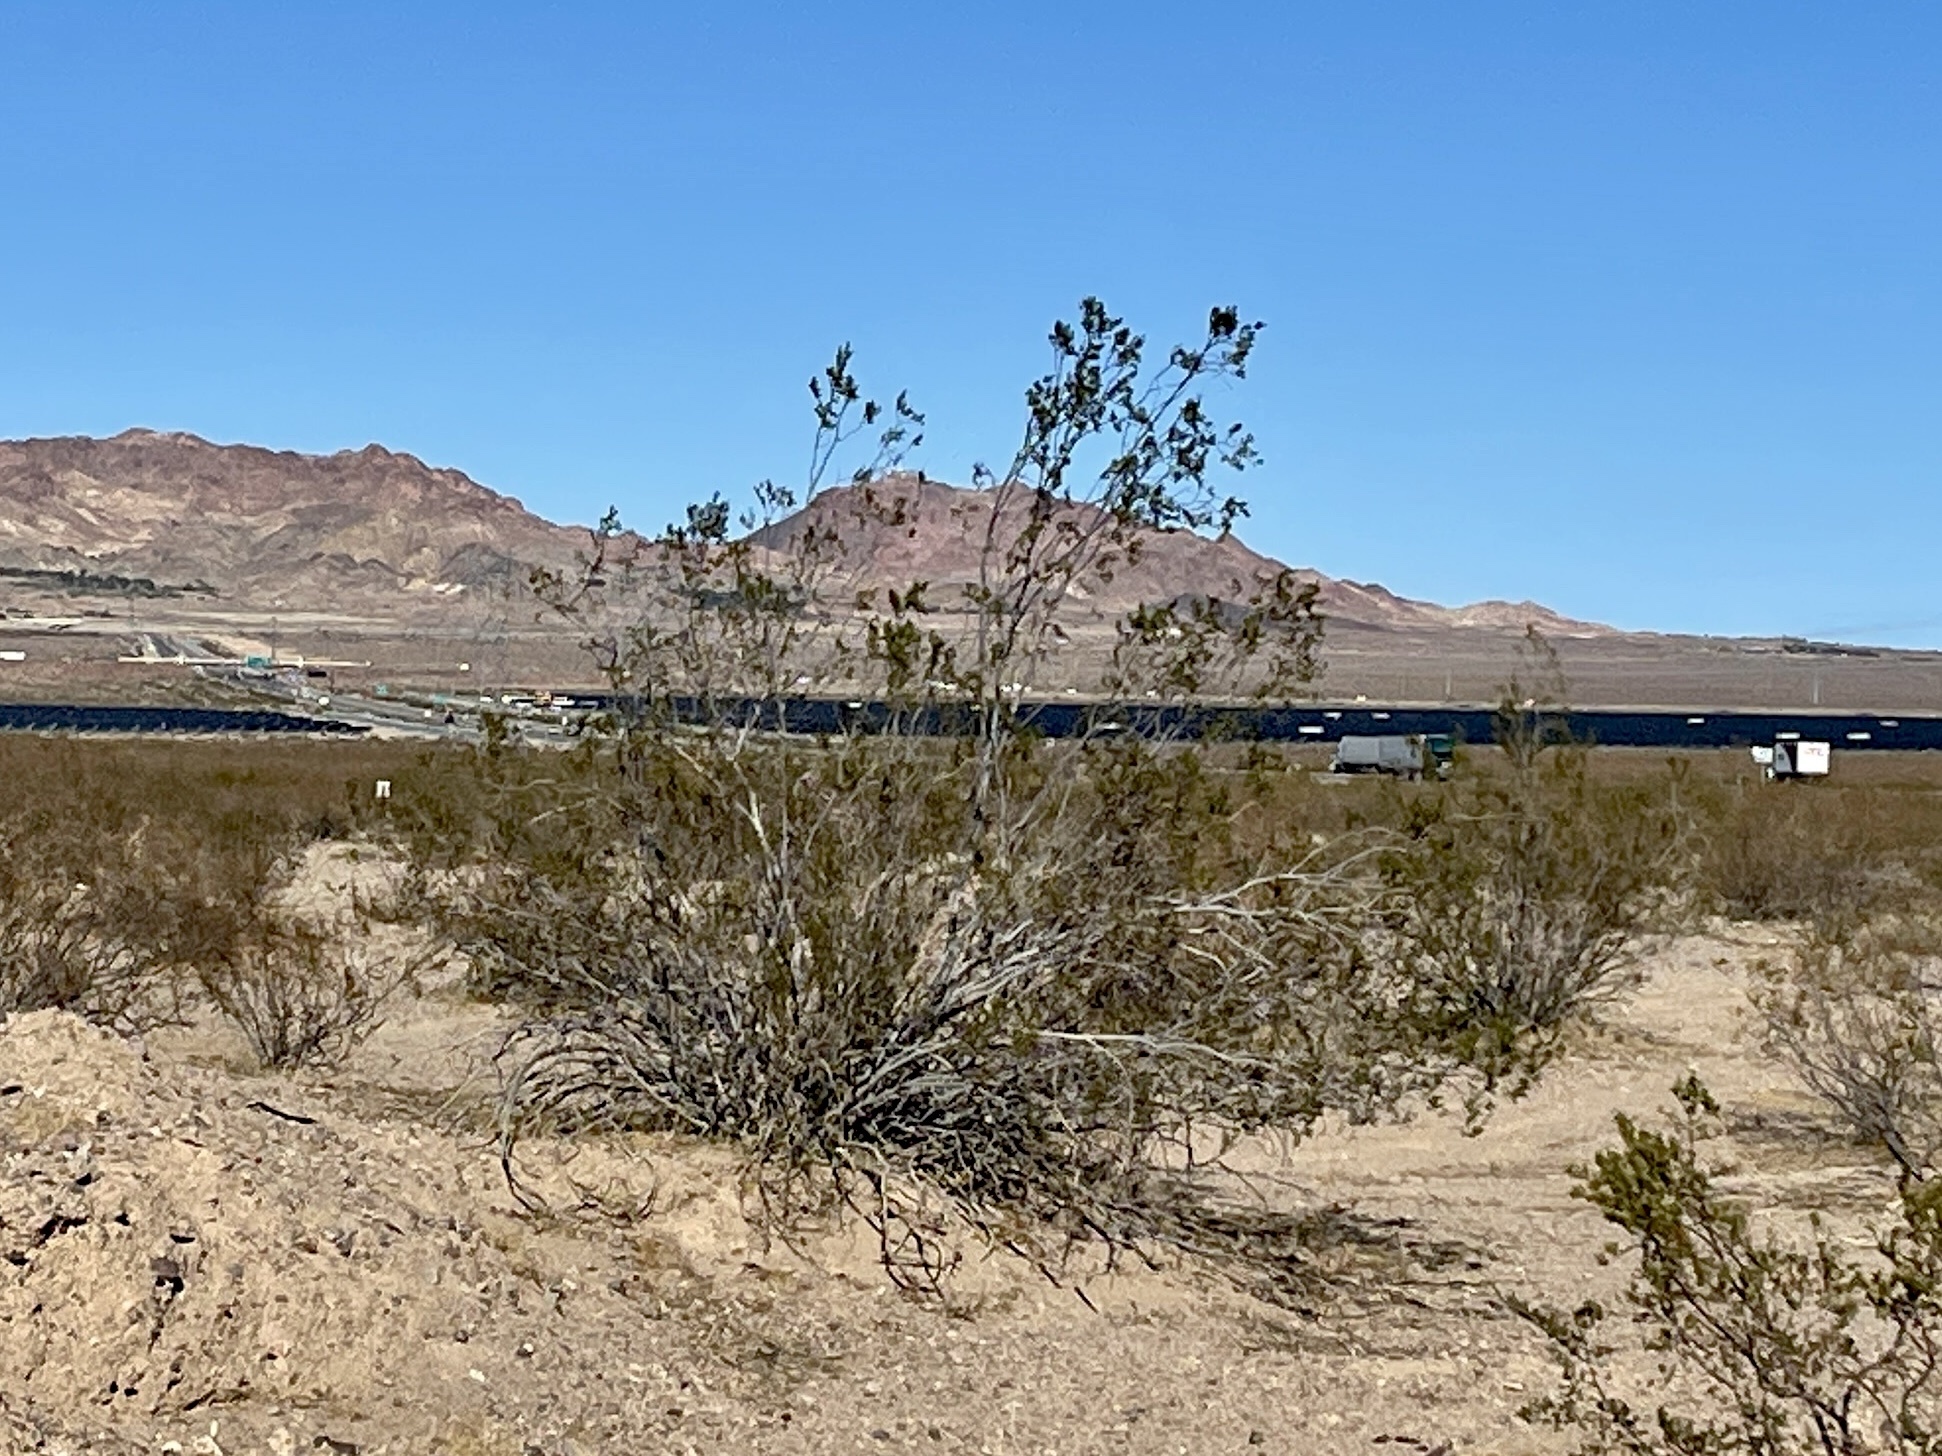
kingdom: Plantae
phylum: Tracheophyta
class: Magnoliopsida
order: Zygophyllales
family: Zygophyllaceae
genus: Larrea
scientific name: Larrea tridentata
